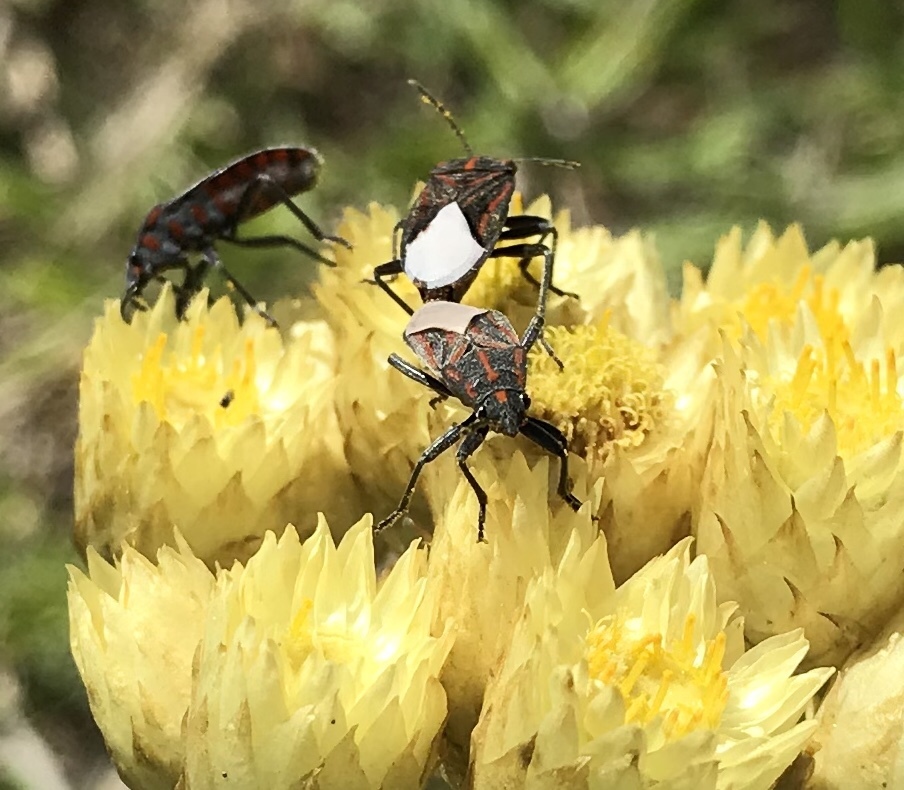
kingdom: Animalia
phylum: Arthropoda
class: Insecta
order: Hemiptera
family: Lygaeidae
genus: Spilostethus
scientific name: Spilostethus trilineatus
